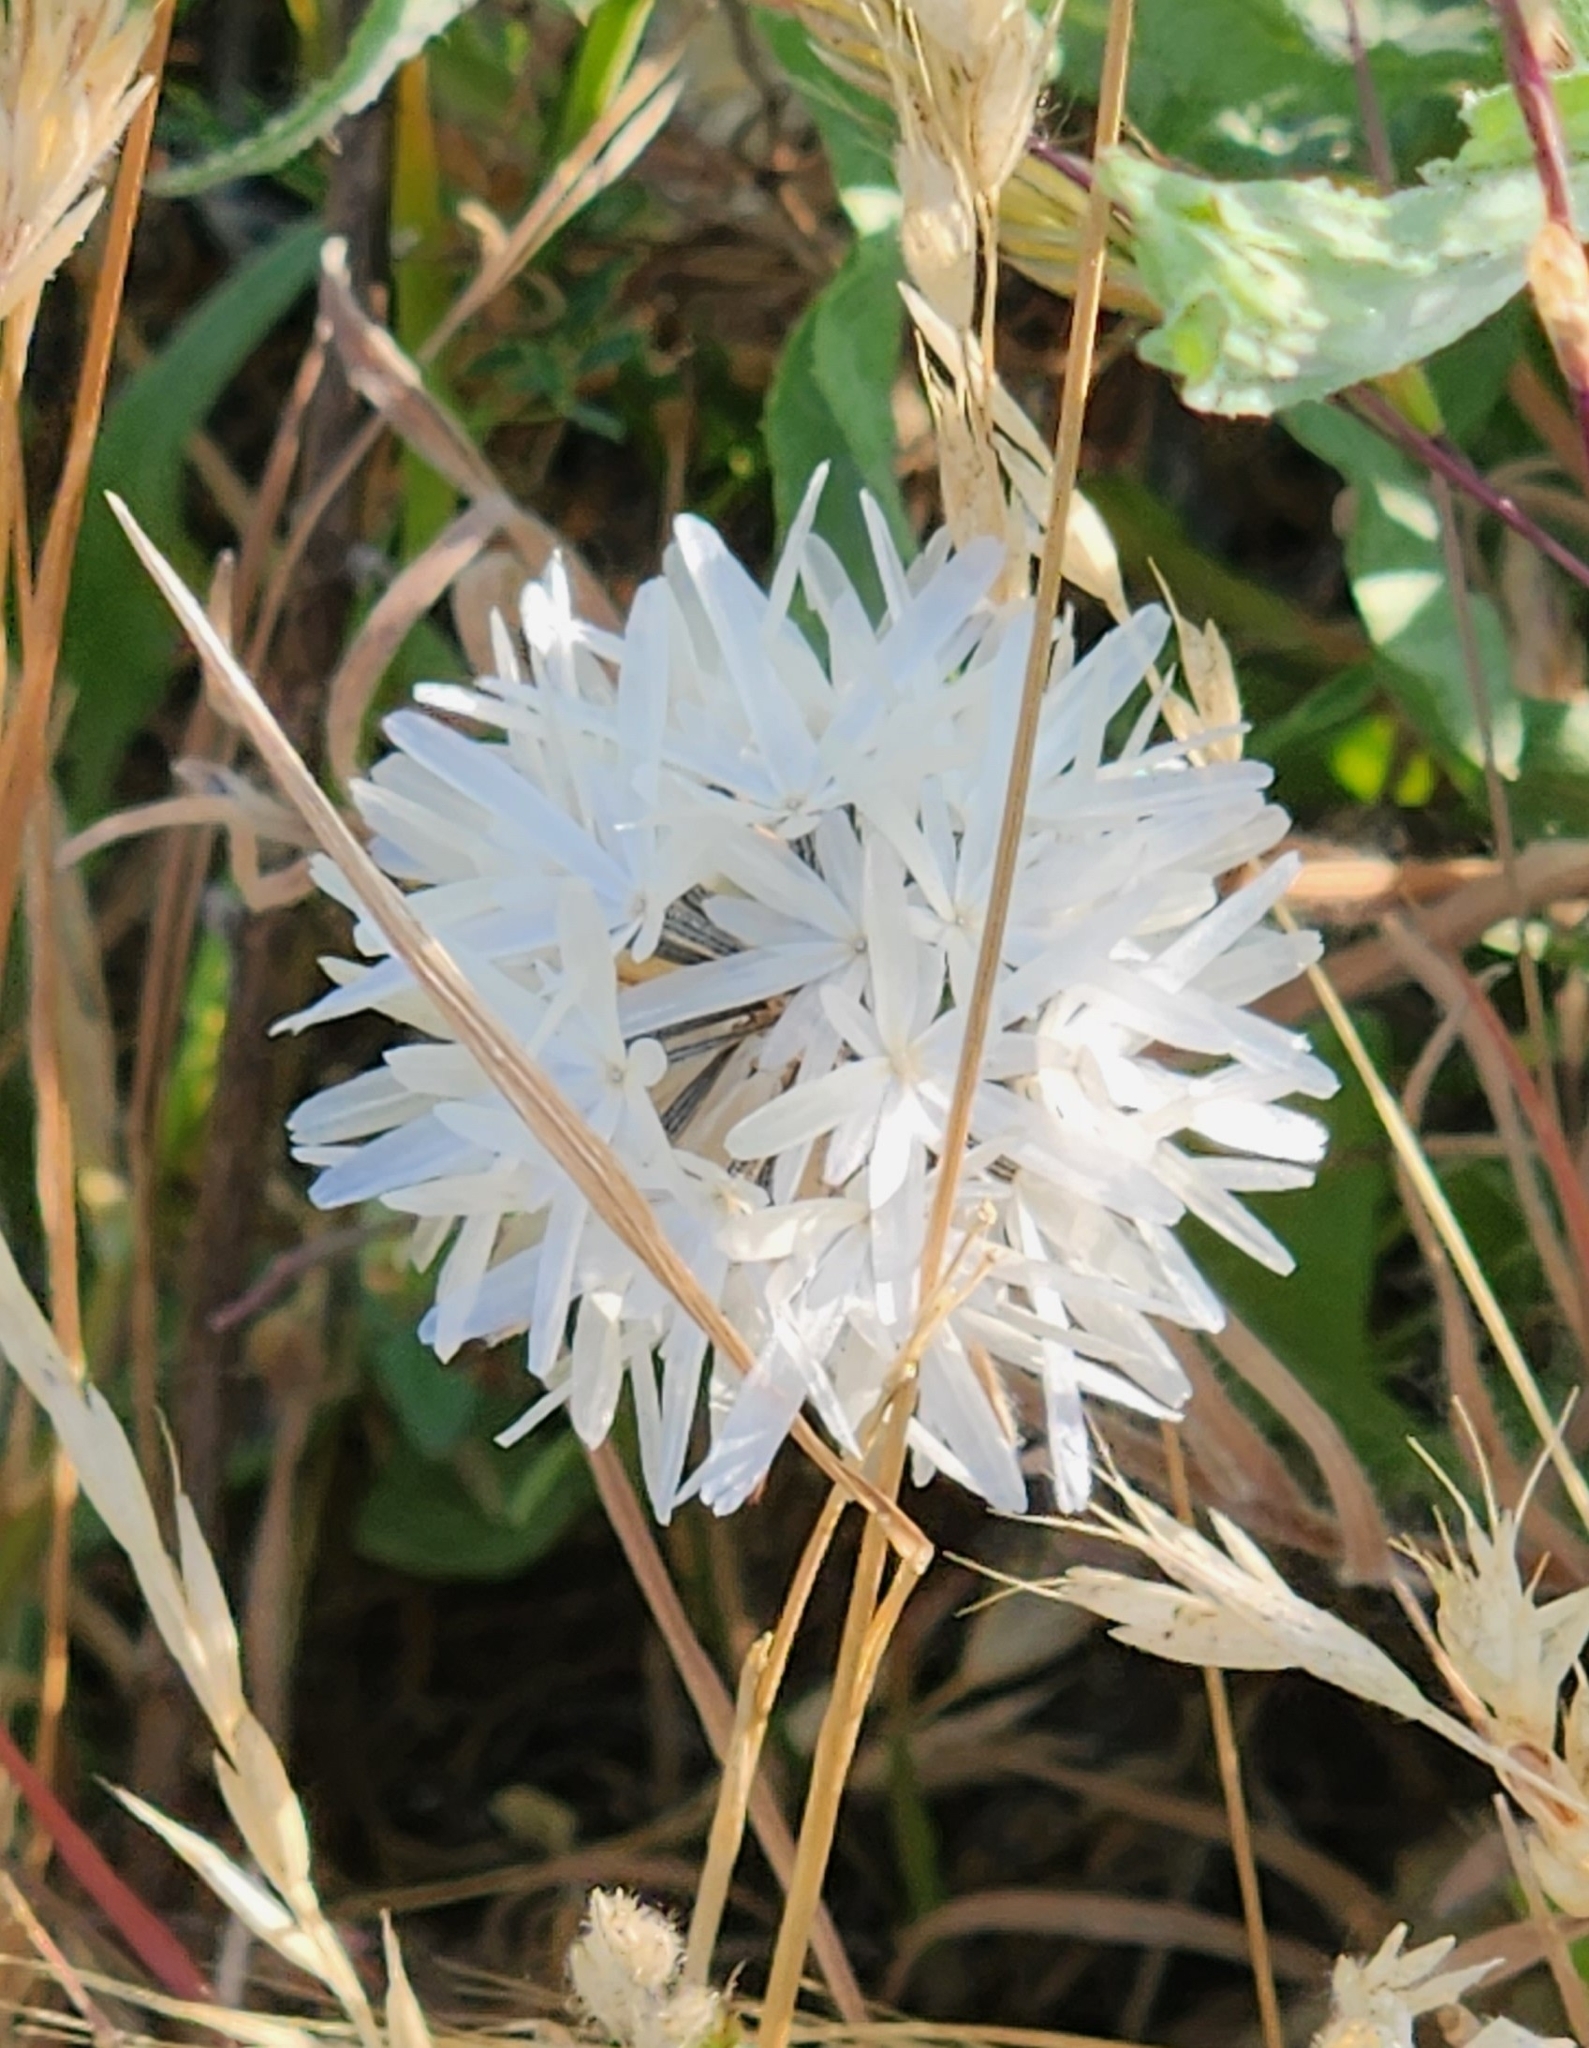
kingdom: Plantae
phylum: Tracheophyta
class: Magnoliopsida
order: Asterales
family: Asteraceae
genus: Achyrachaena
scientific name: Achyrachaena mollis
